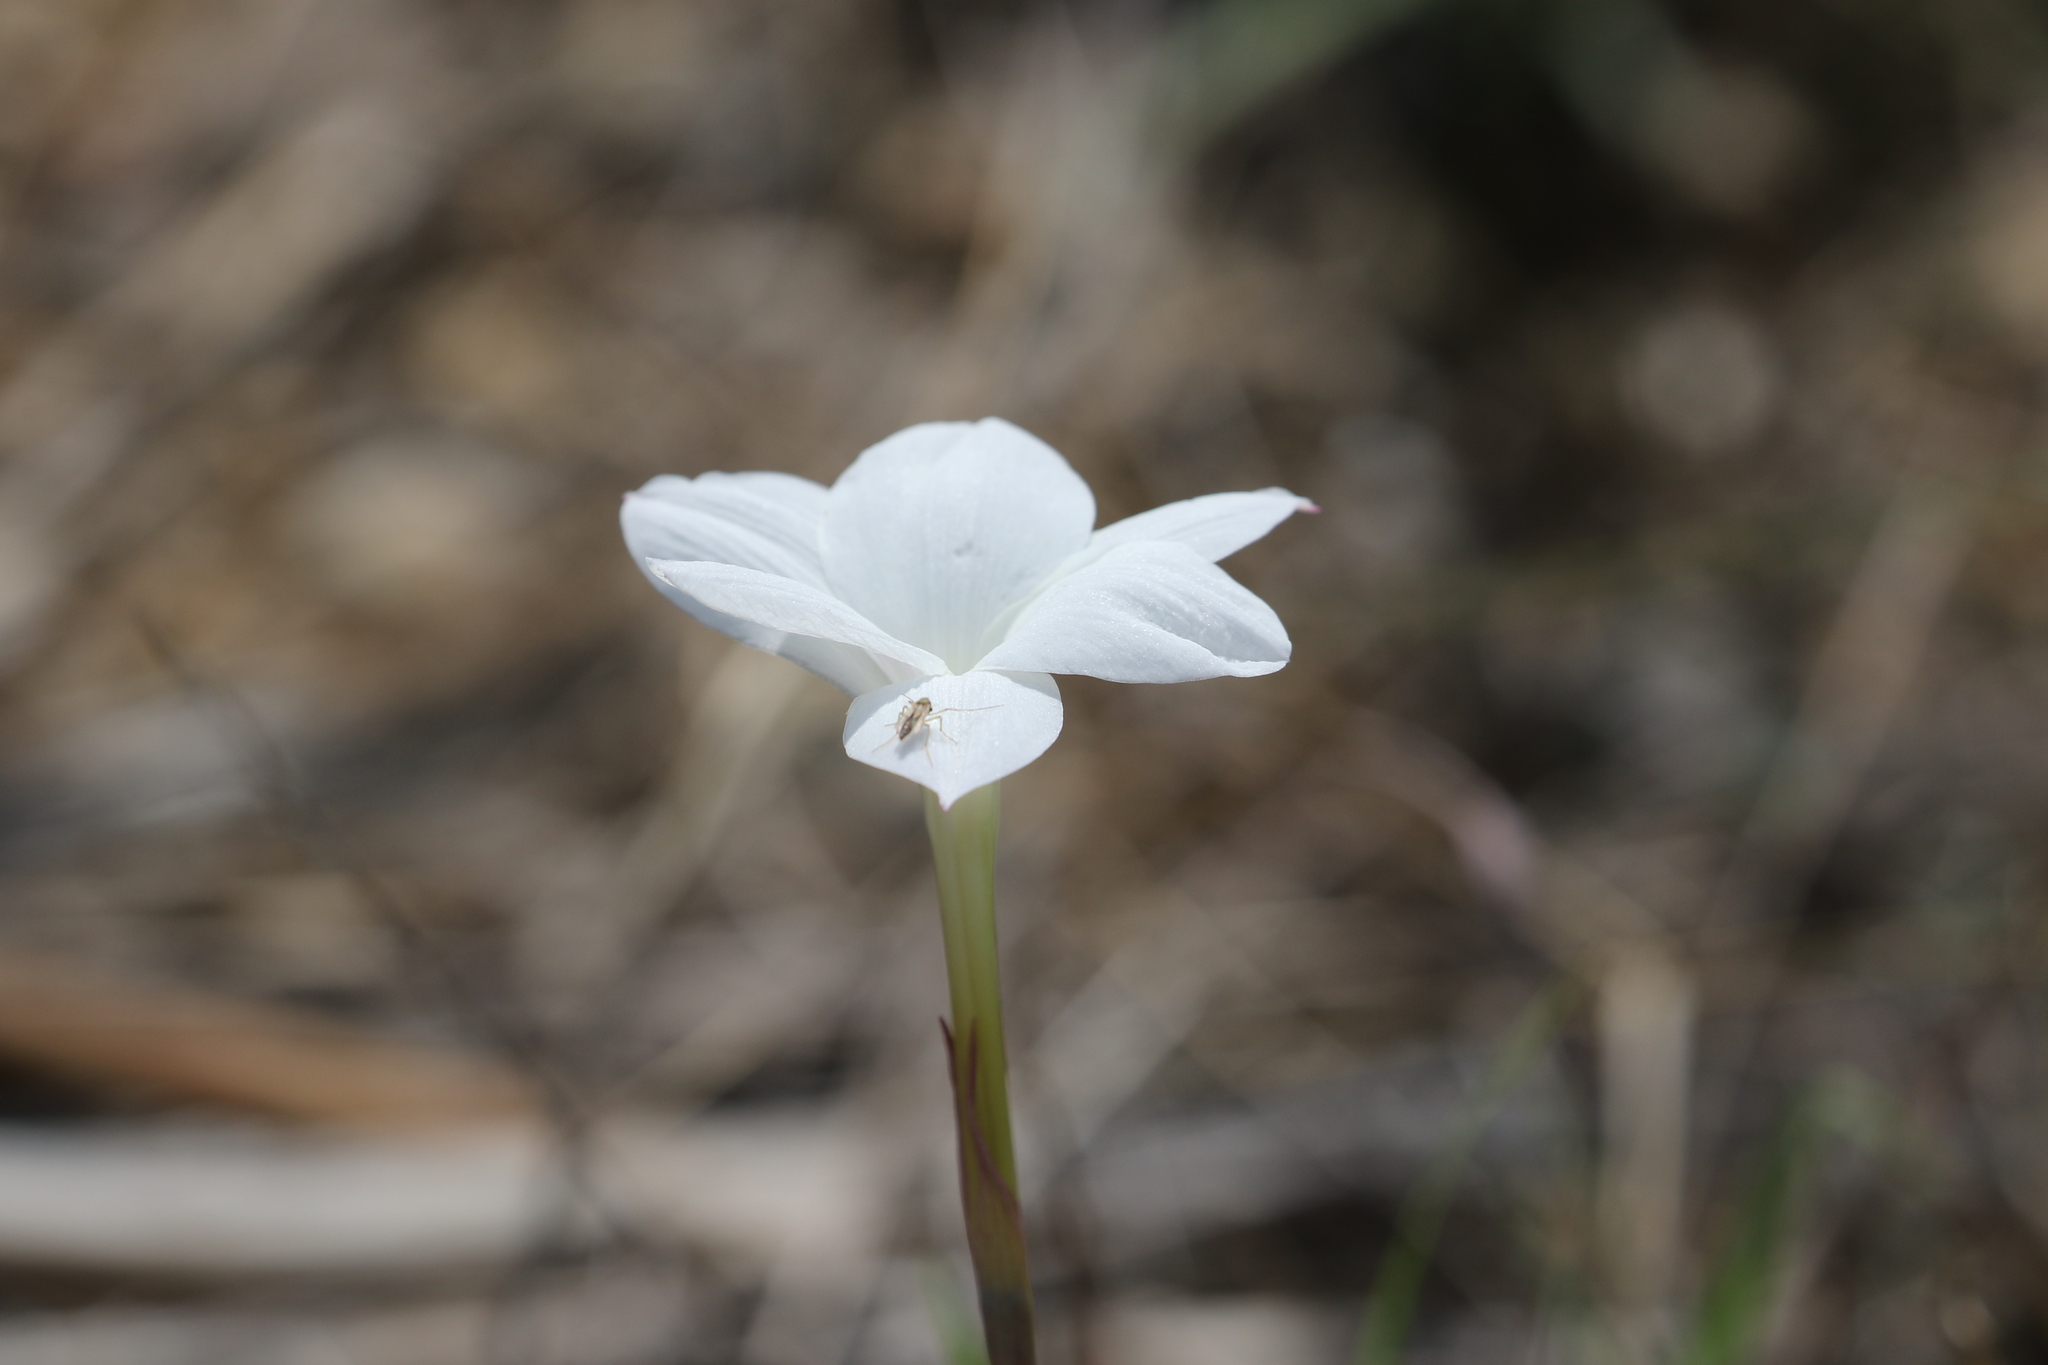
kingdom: Plantae
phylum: Tracheophyta
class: Liliopsida
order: Asparagales
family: Amaryllidaceae
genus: Zephyranthes
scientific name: Zephyranthes drummondii
